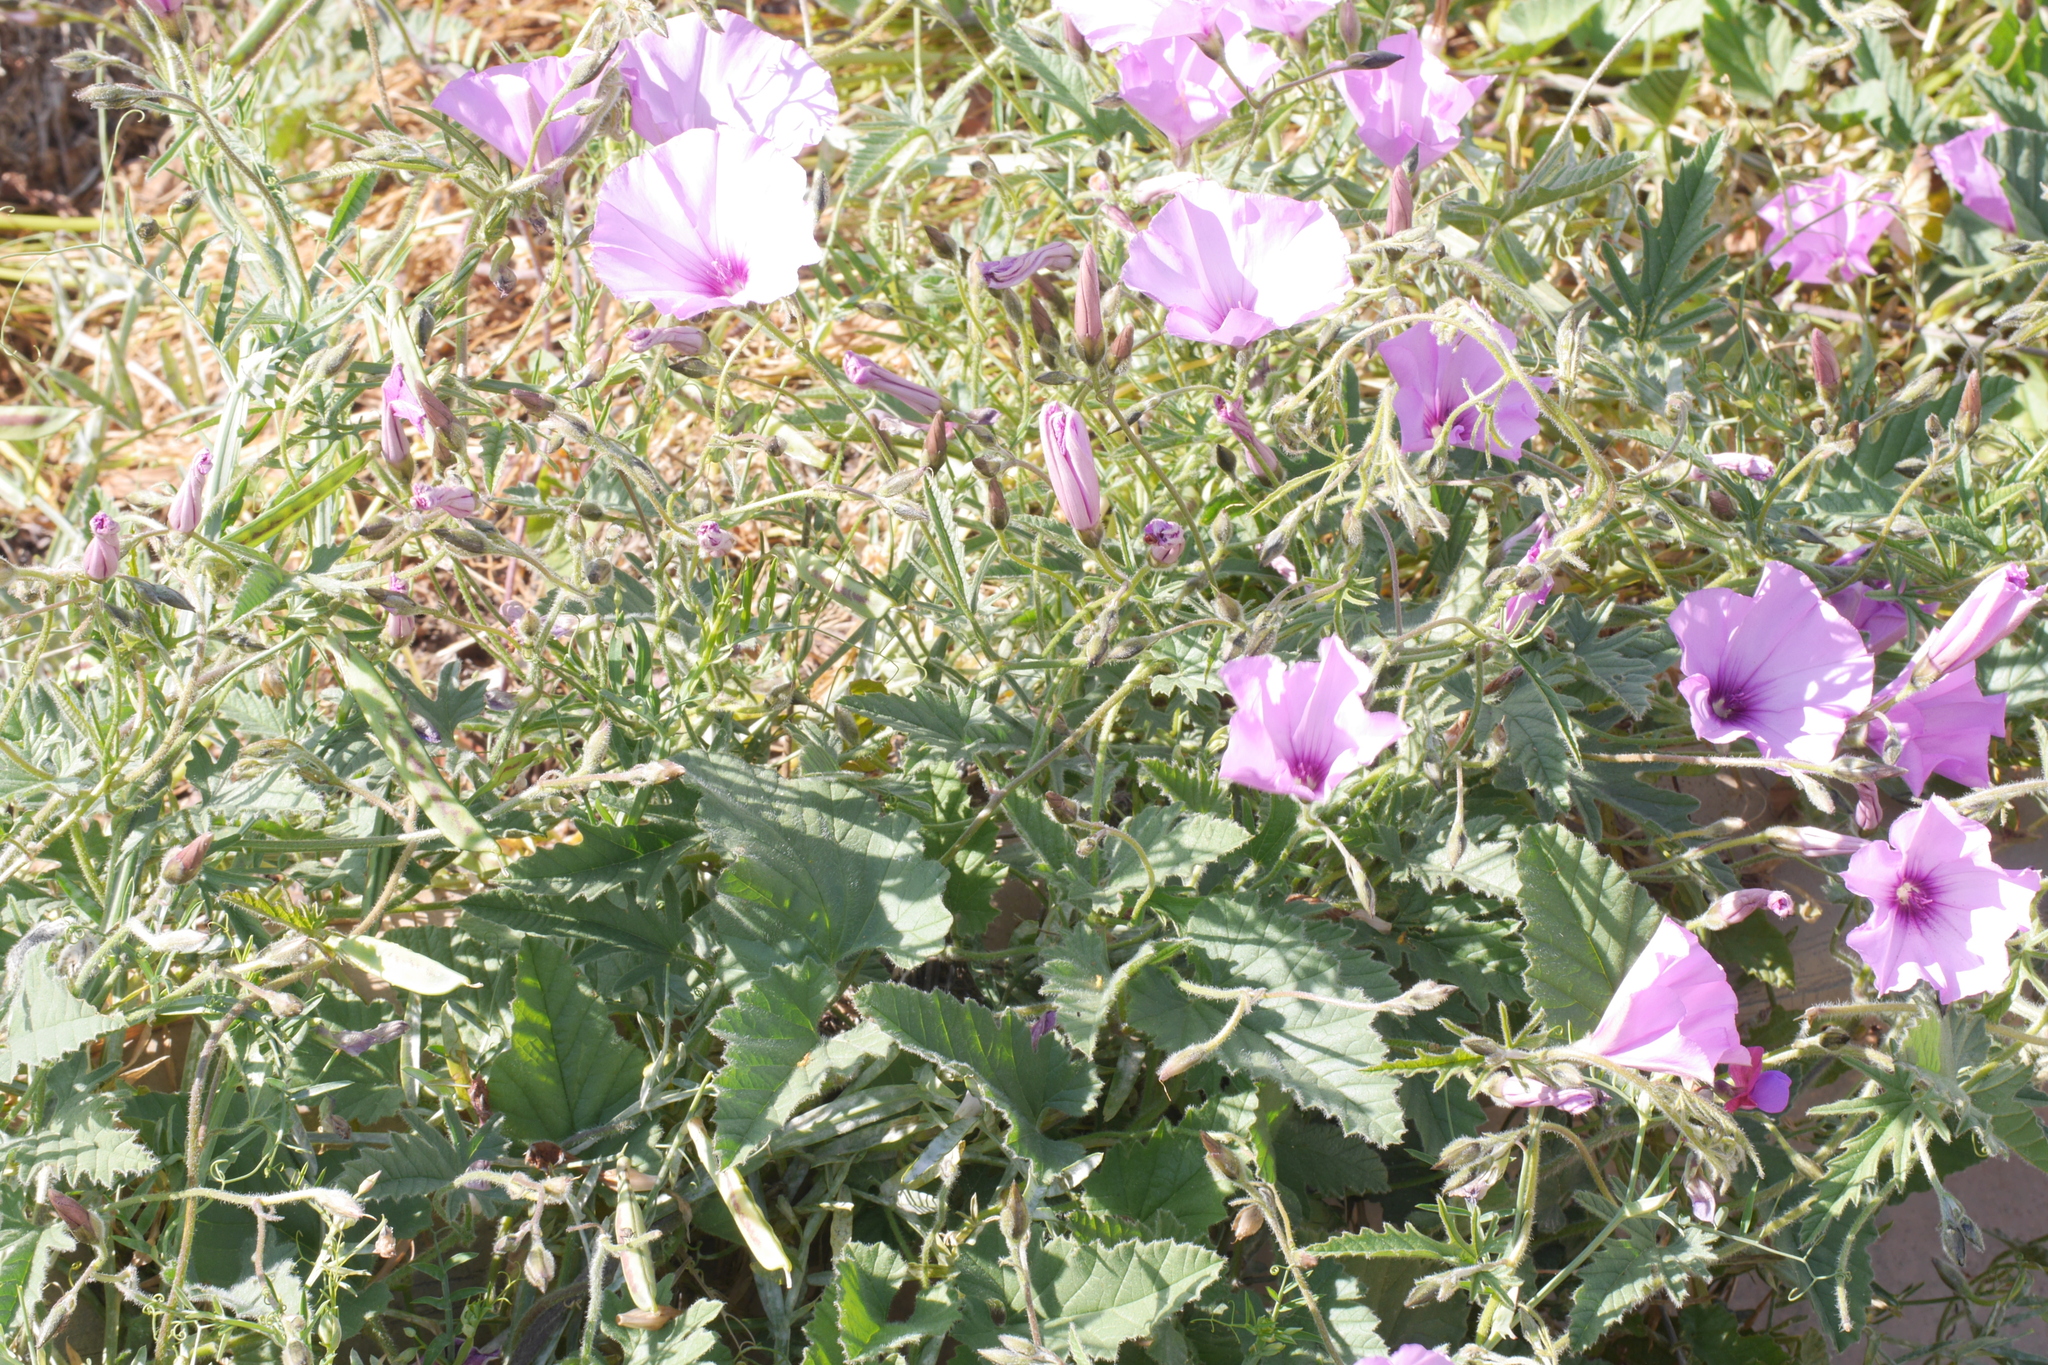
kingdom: Plantae
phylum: Tracheophyta
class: Magnoliopsida
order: Solanales
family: Convolvulaceae
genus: Convolvulus
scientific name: Convolvulus althaeoides
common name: Mallow bindweed
